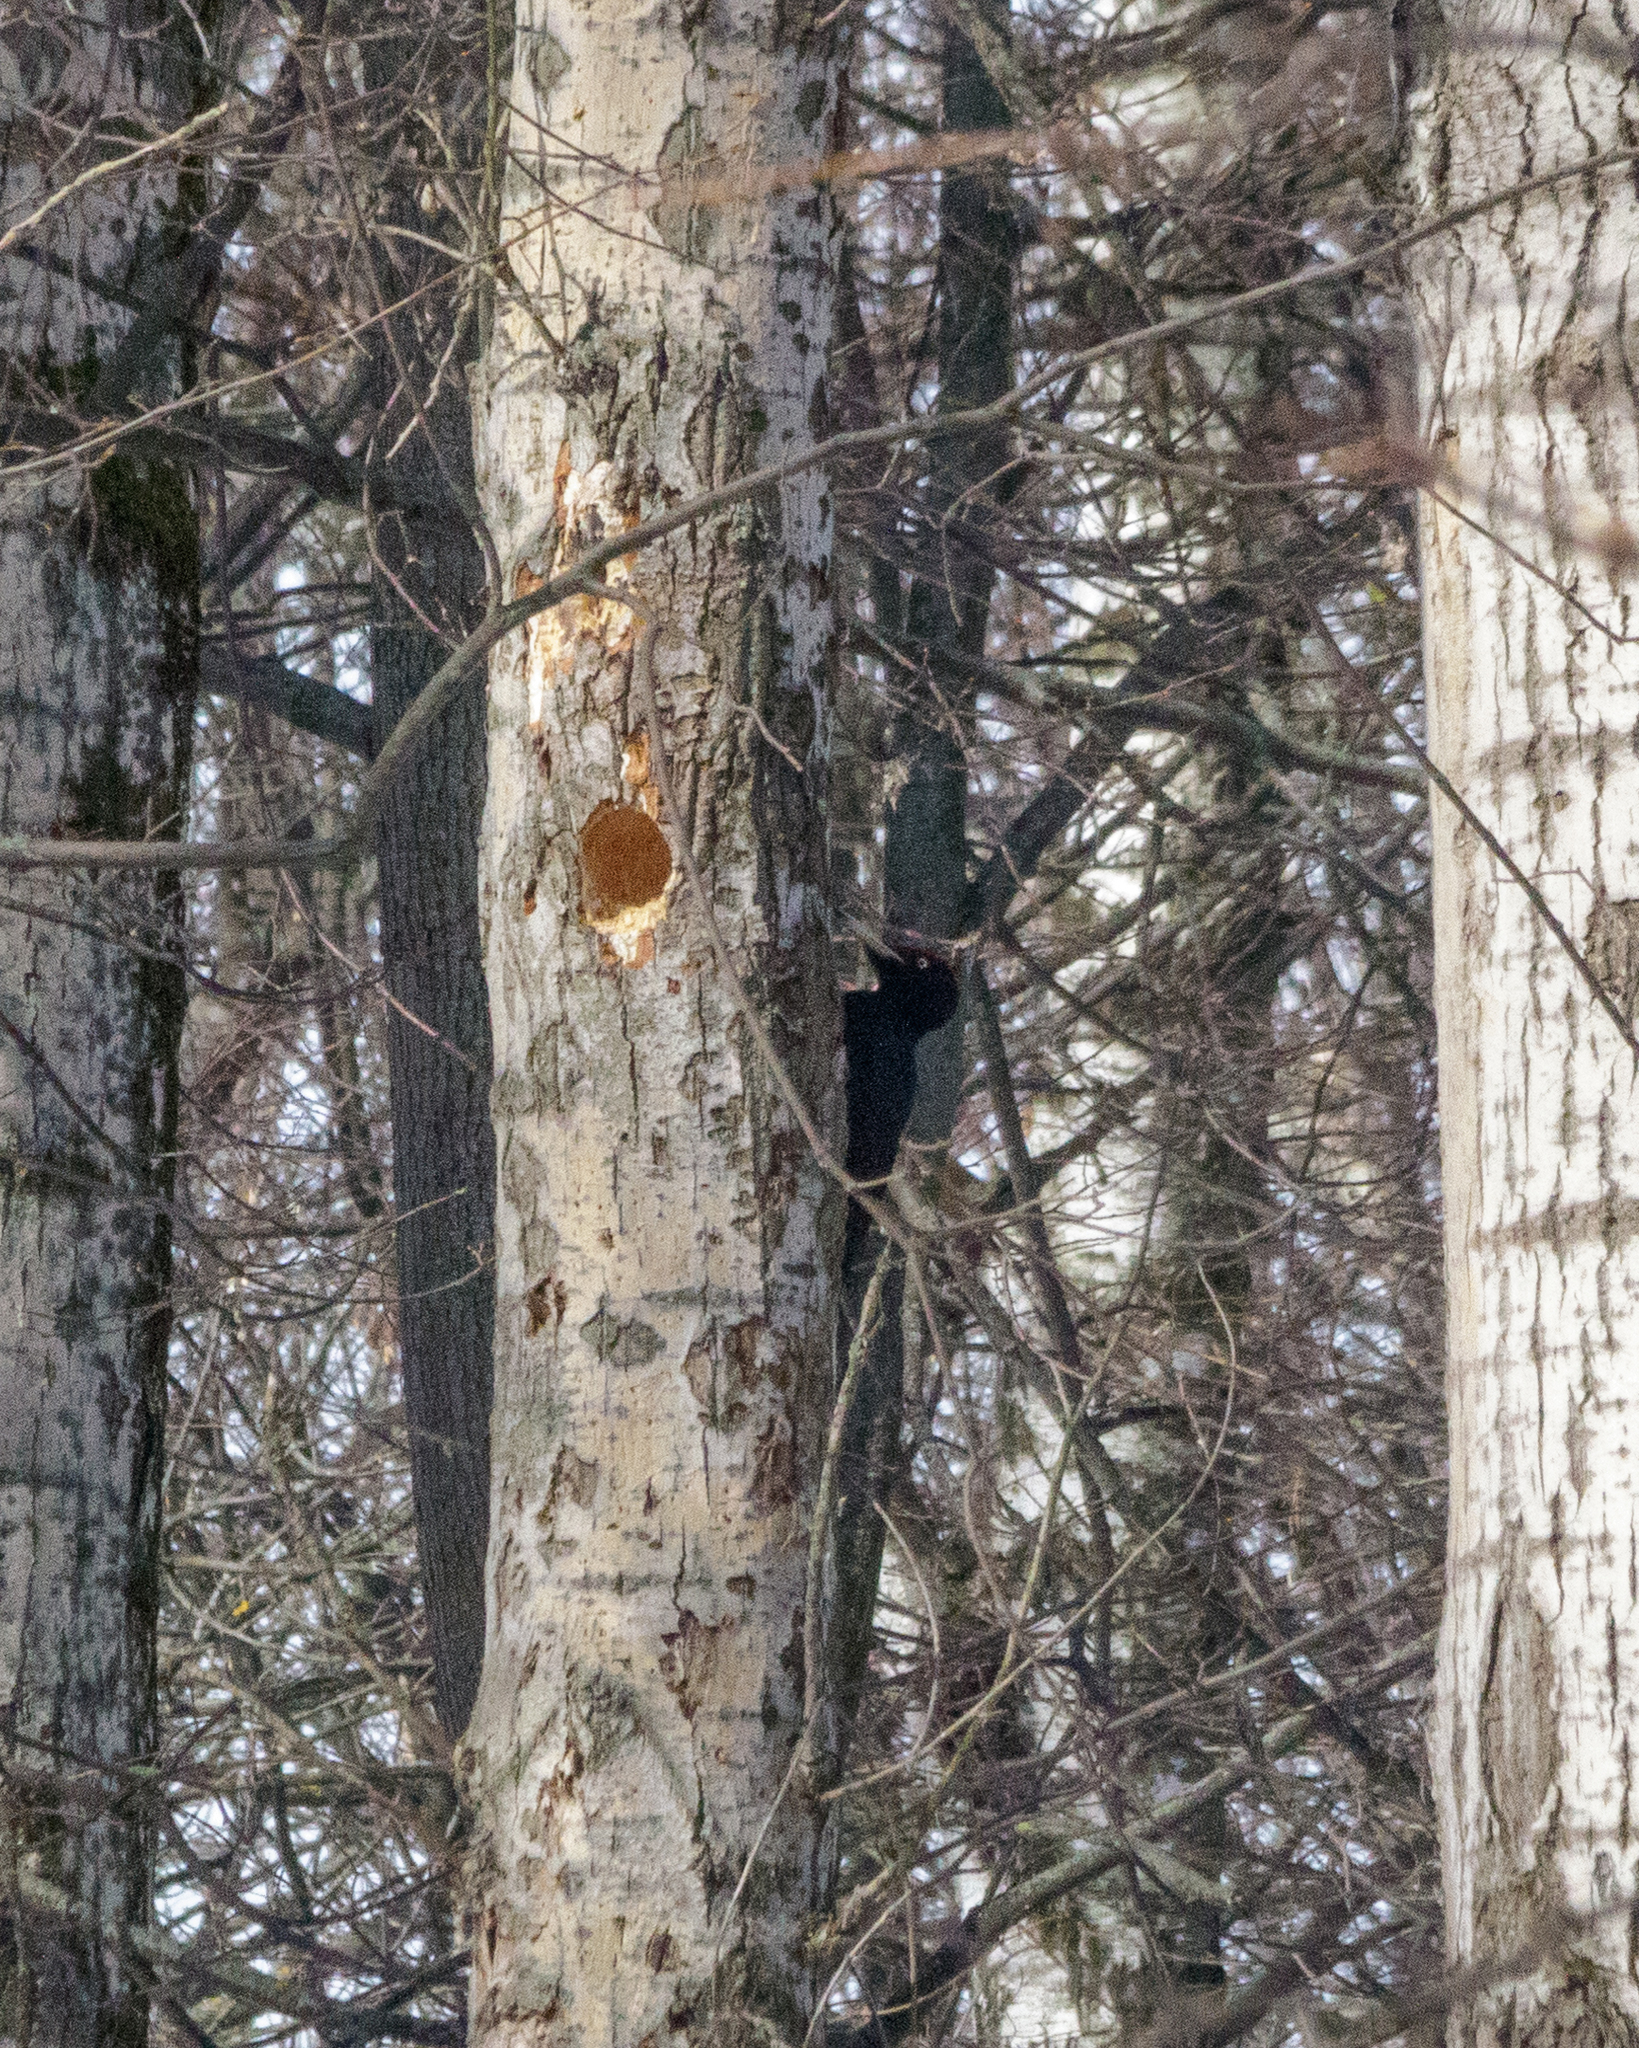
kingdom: Animalia
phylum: Chordata
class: Aves
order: Piciformes
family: Picidae
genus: Dryocopus
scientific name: Dryocopus martius
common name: Black woodpecker
